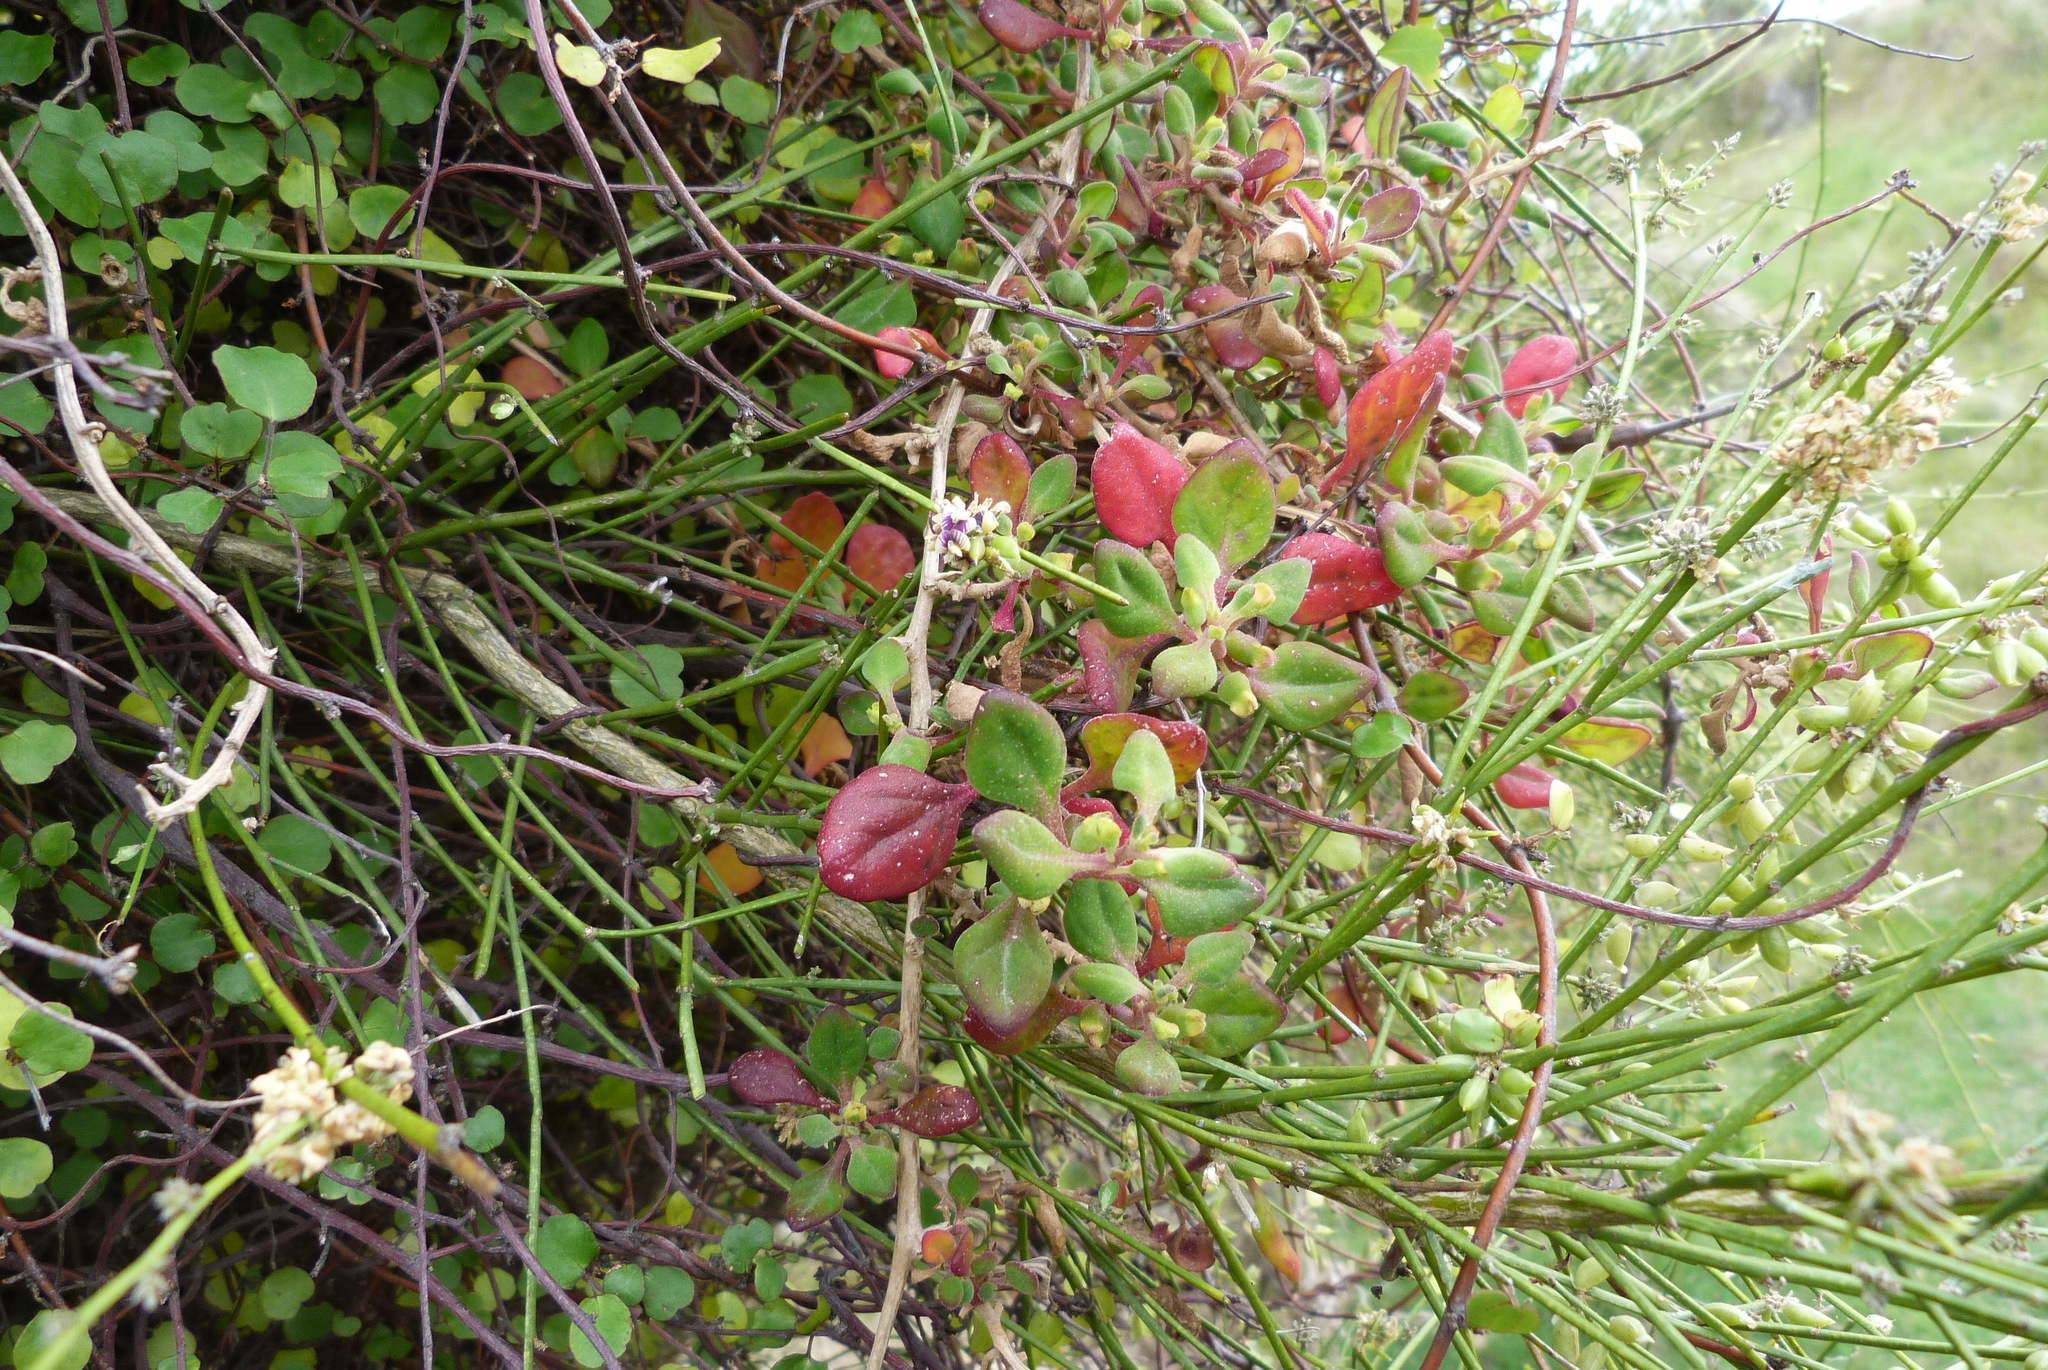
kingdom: Plantae
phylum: Tracheophyta
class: Magnoliopsida
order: Caryophyllales
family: Aizoaceae
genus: Tetragonia
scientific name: Tetragonia implexicoma
